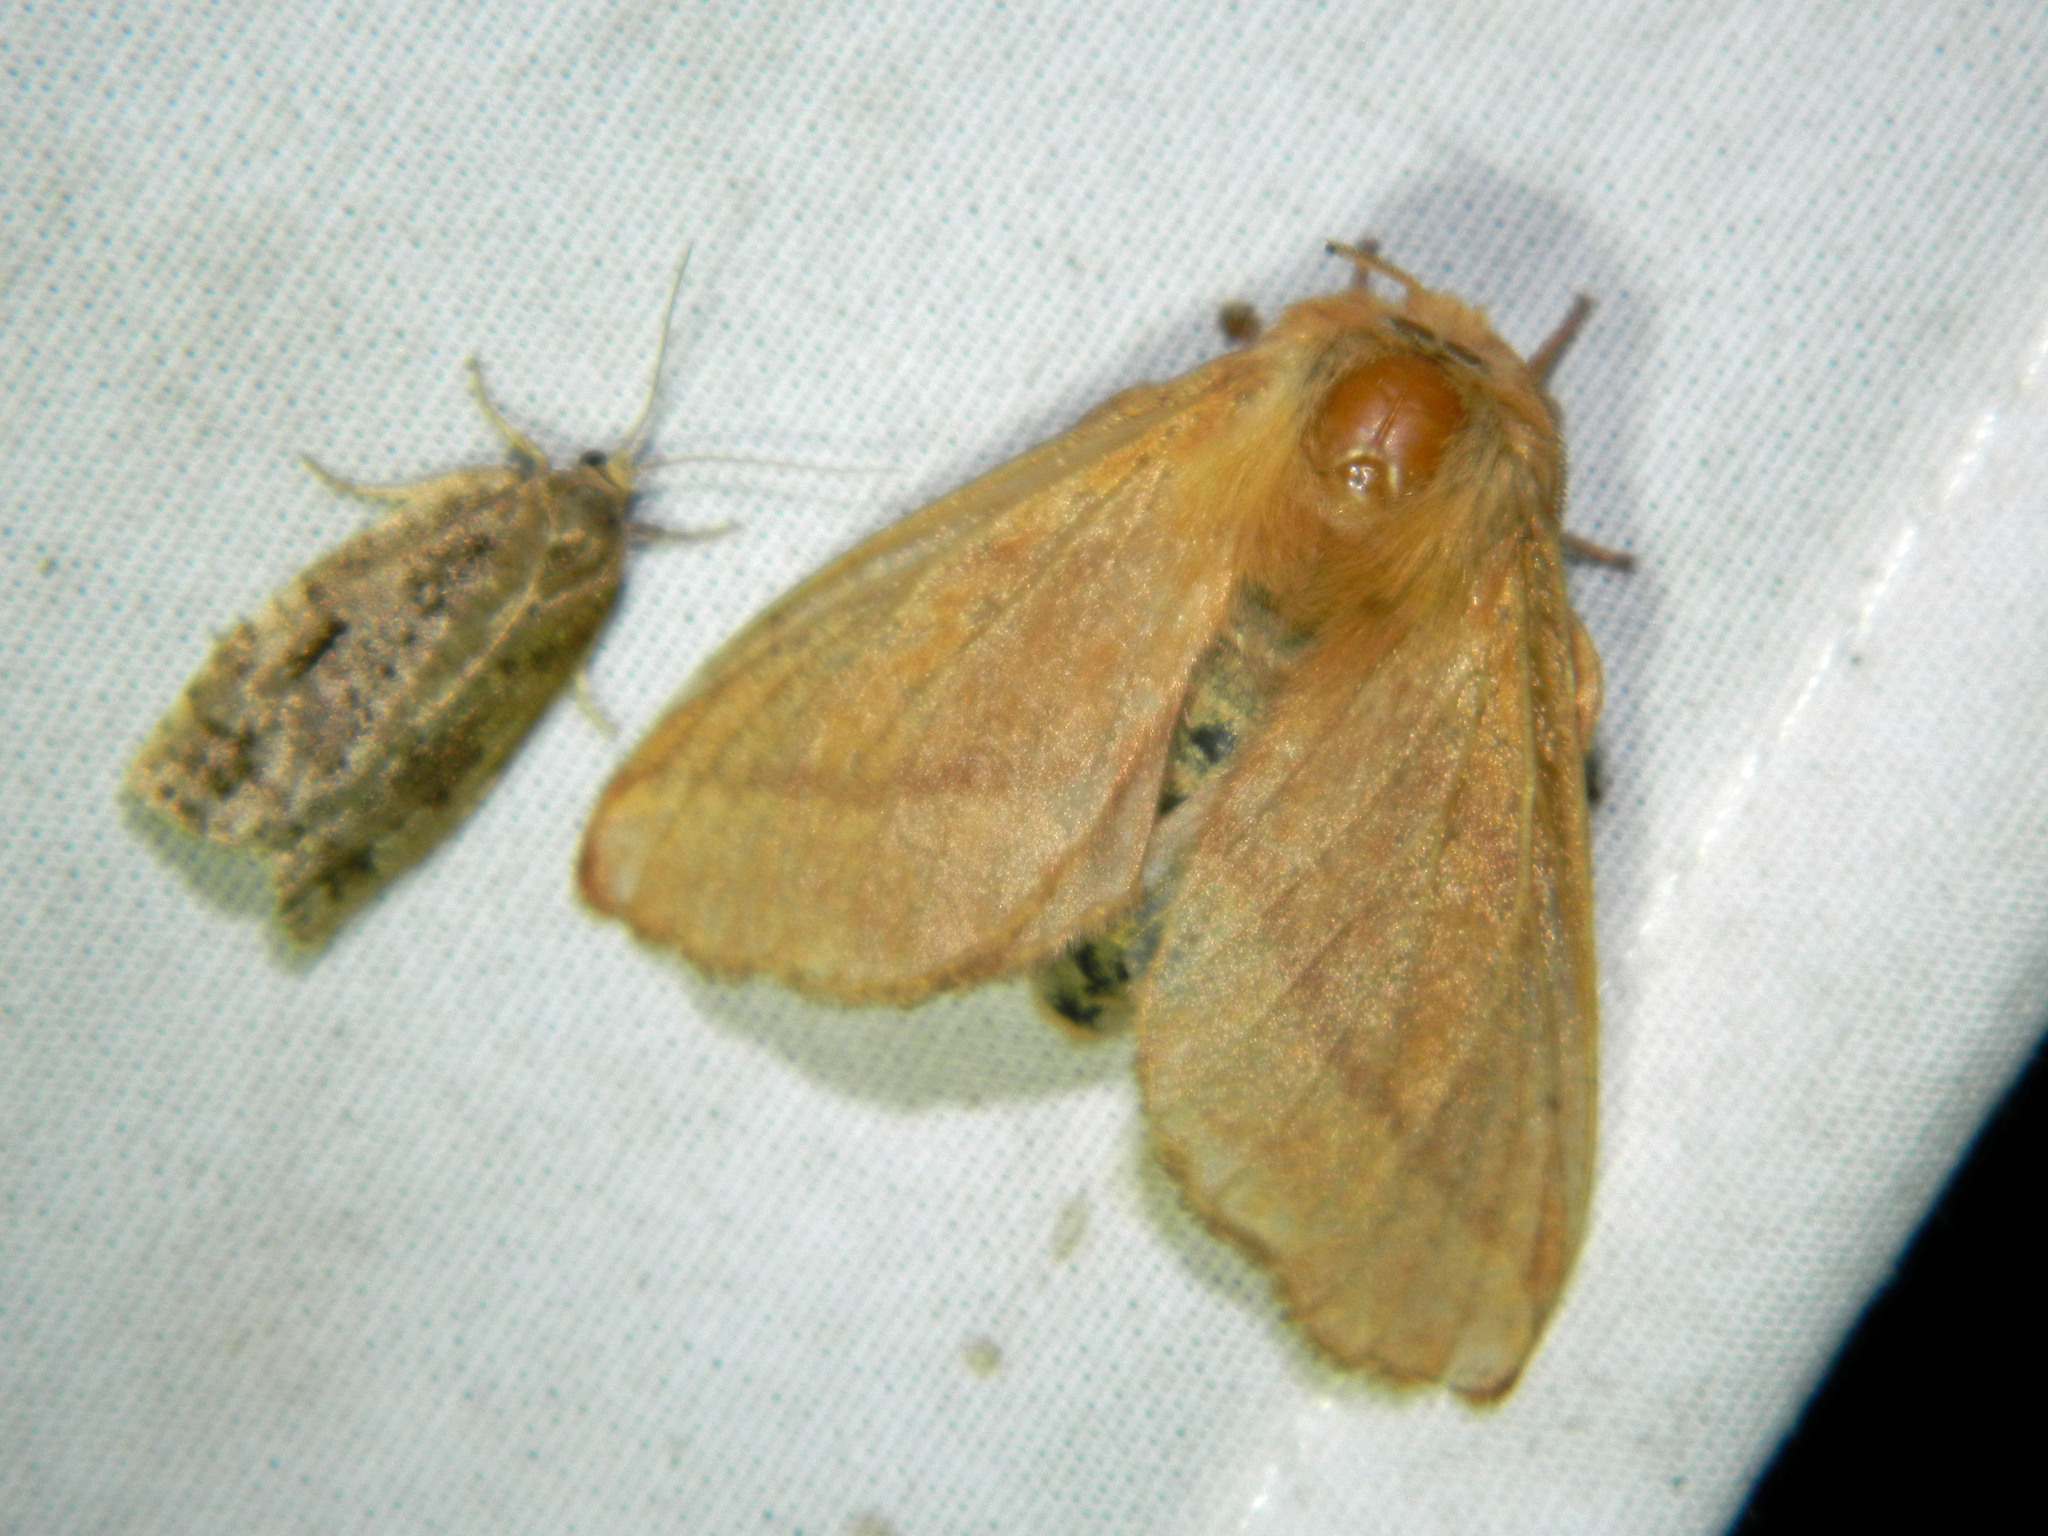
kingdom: Animalia
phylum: Arthropoda
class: Insecta
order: Lepidoptera
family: Lasiocampidae
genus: Malacosoma
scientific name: Malacosoma disstria
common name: Forest tent caterpillar
